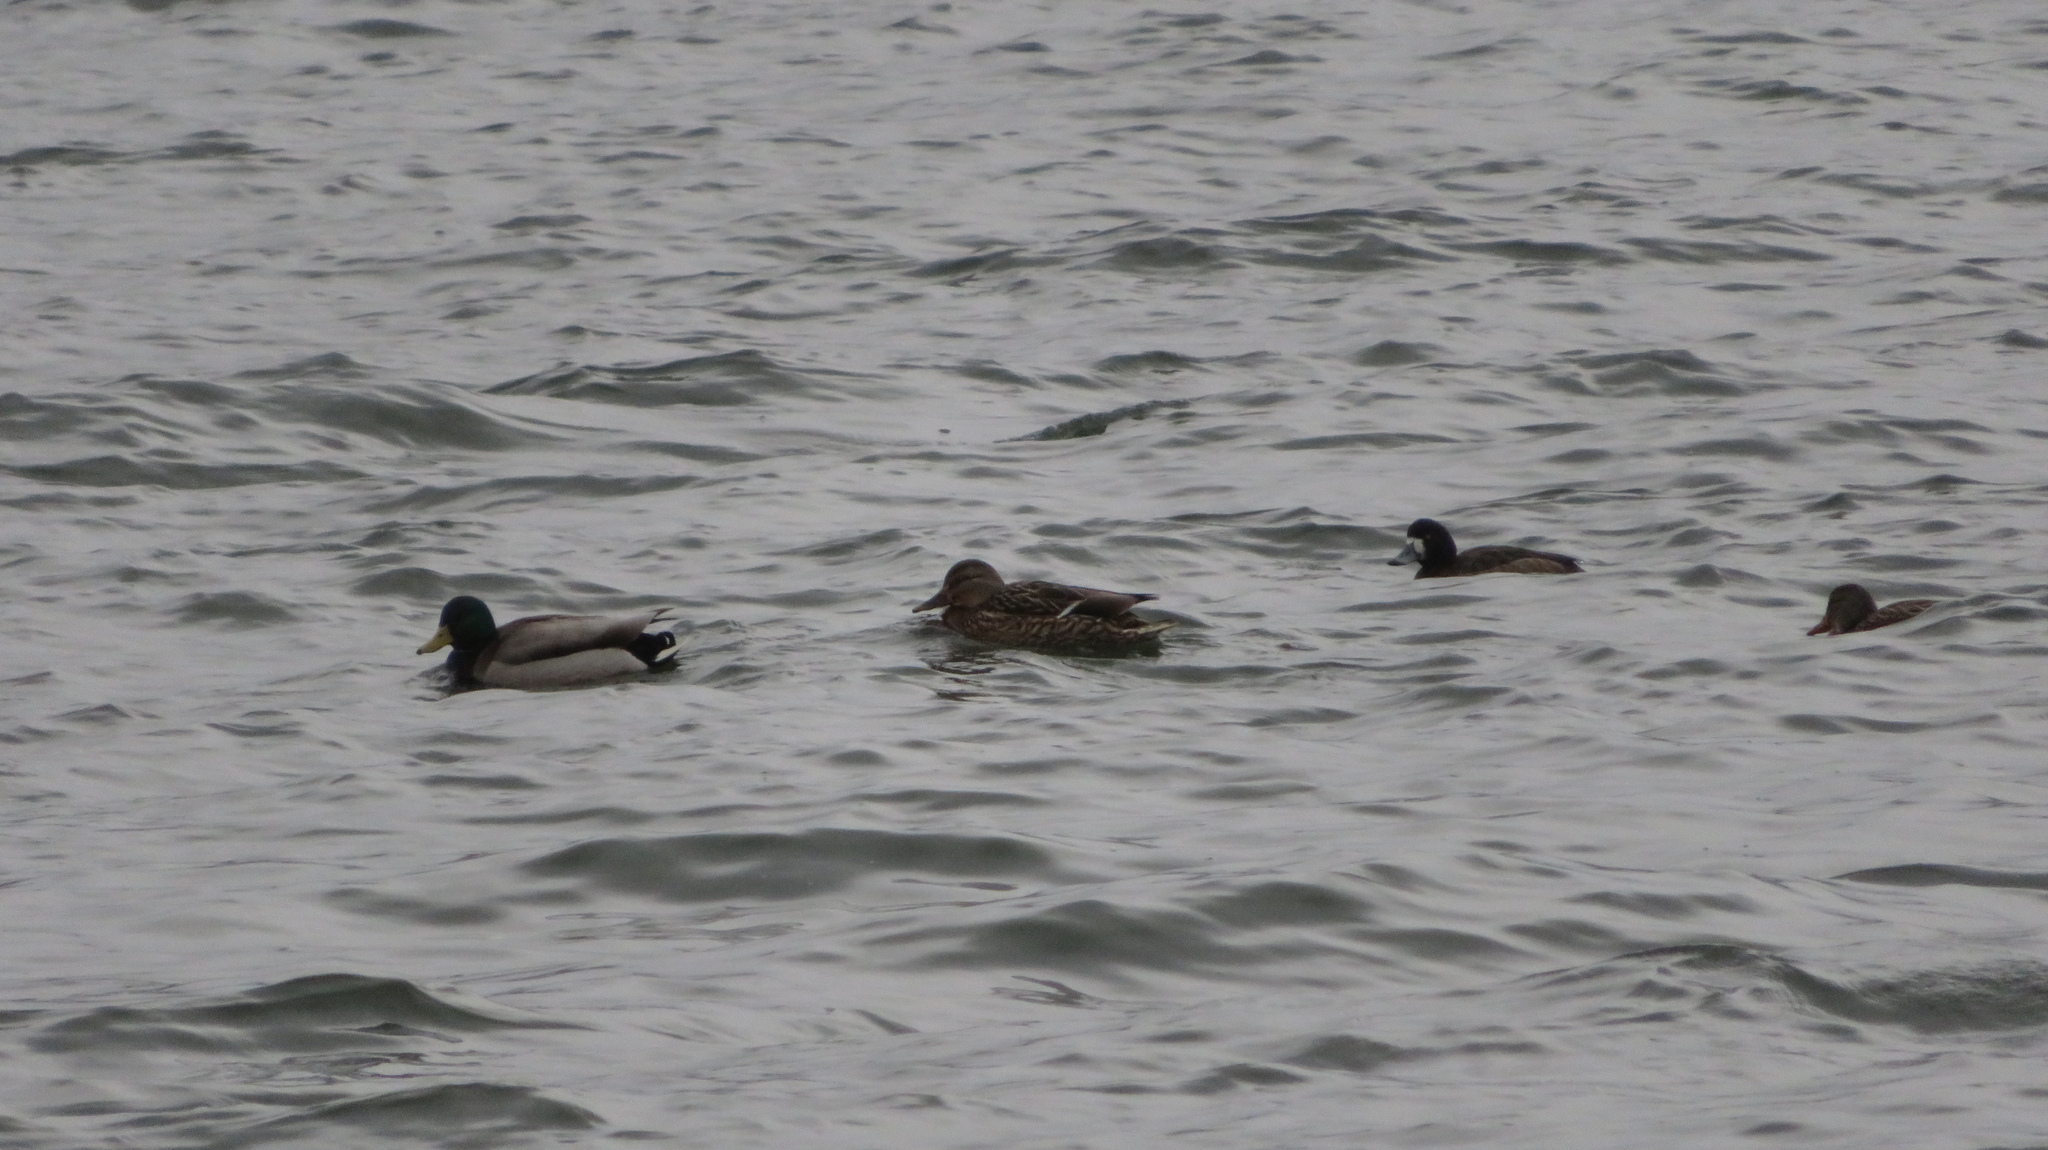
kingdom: Animalia
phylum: Chordata
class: Aves
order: Anseriformes
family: Anatidae
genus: Aythya
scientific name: Aythya marila
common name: Greater scaup
